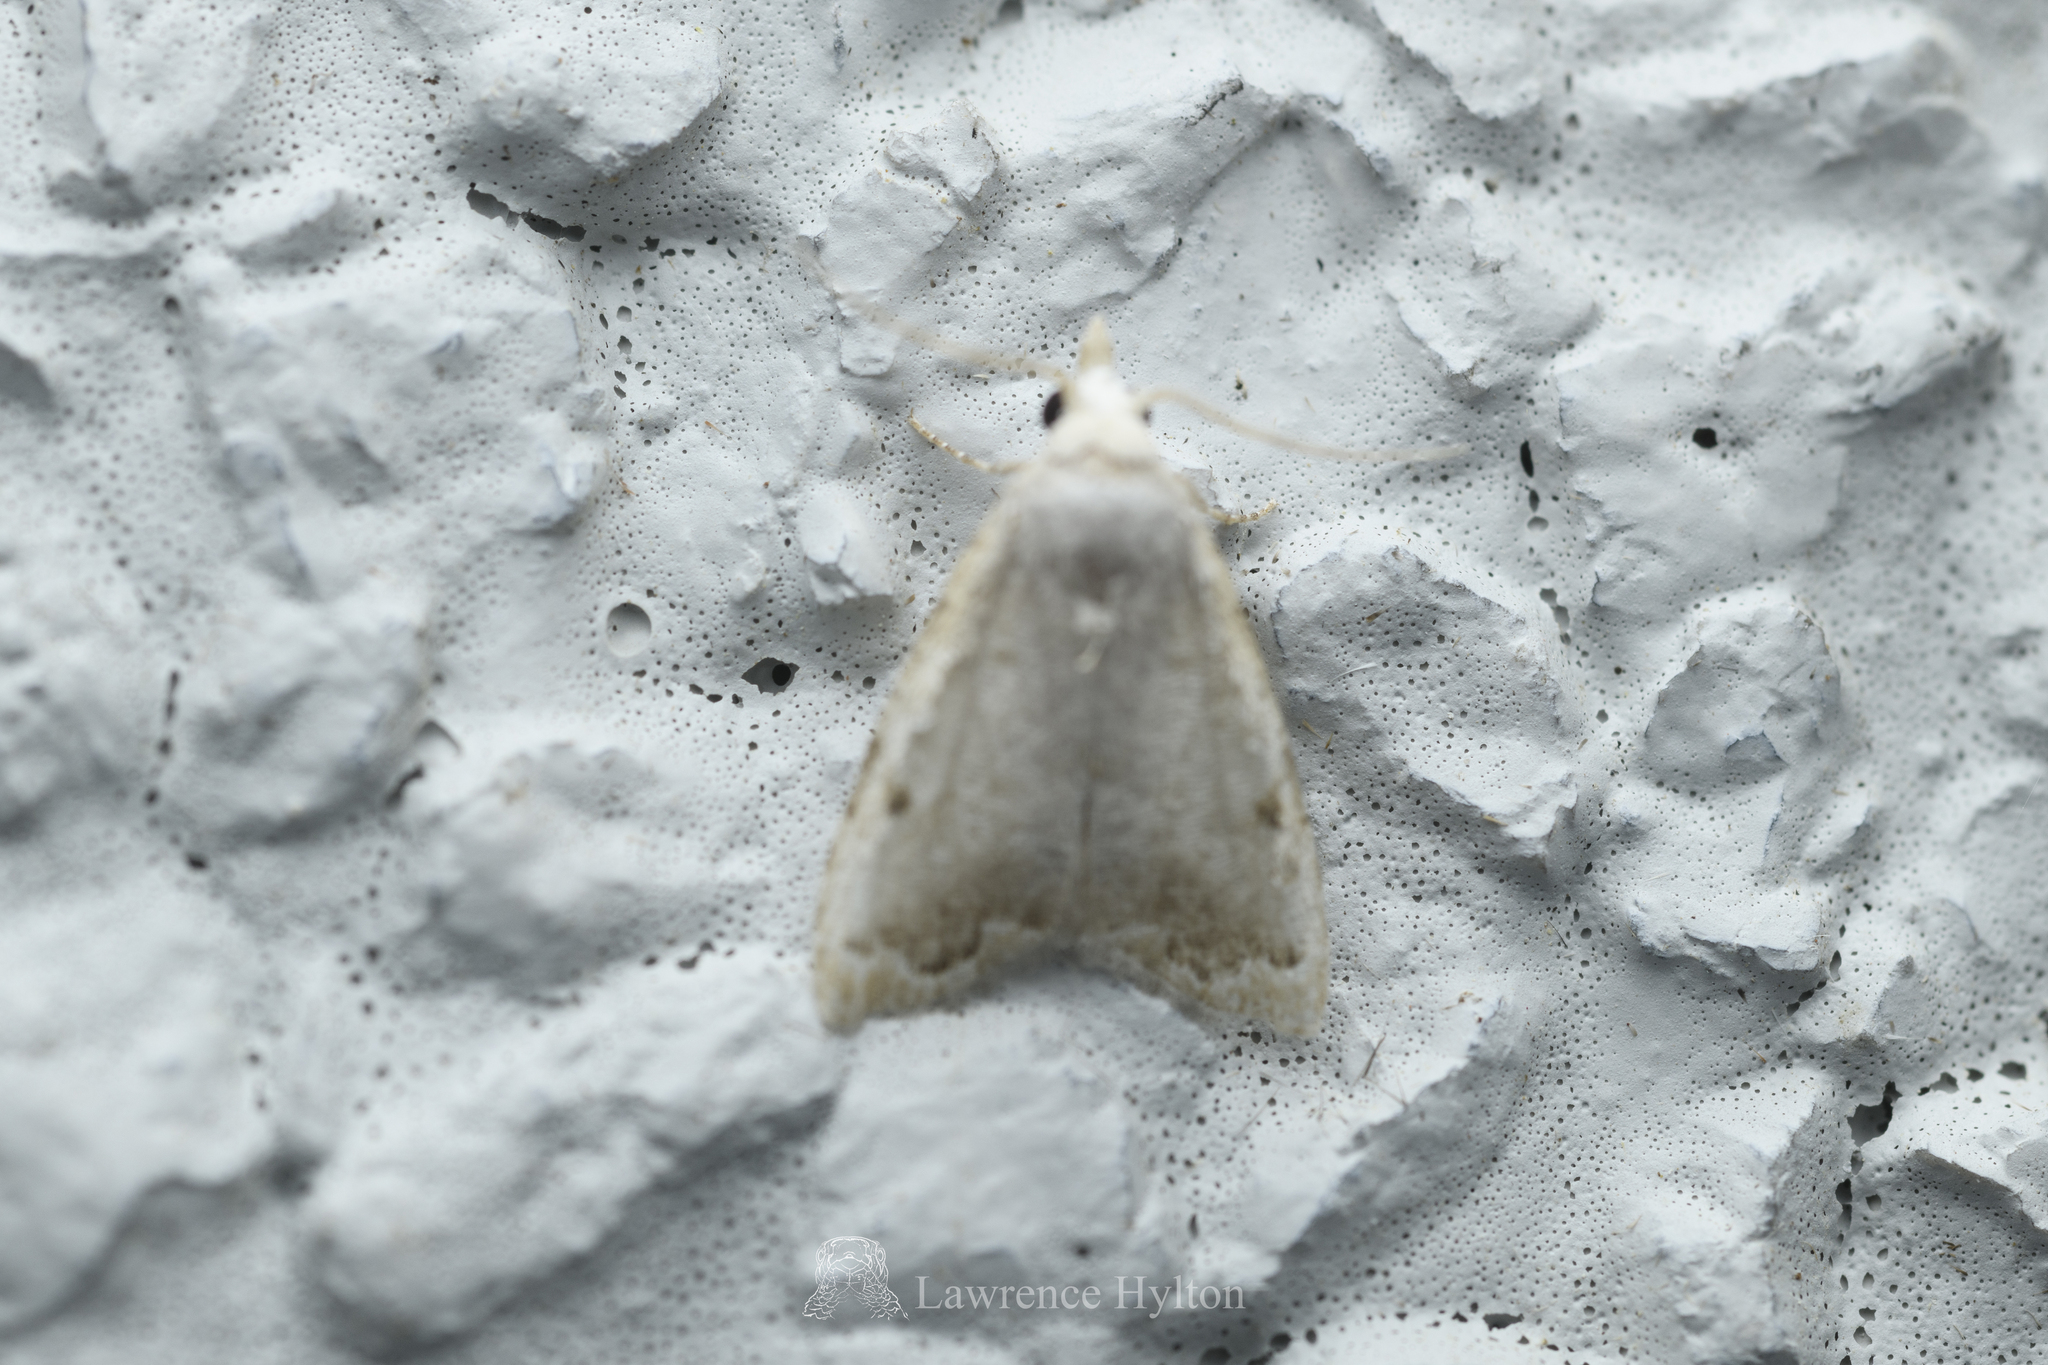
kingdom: Animalia
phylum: Arthropoda
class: Insecta
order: Lepidoptera
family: Nolidae
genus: Nola
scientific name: Nola marginata
